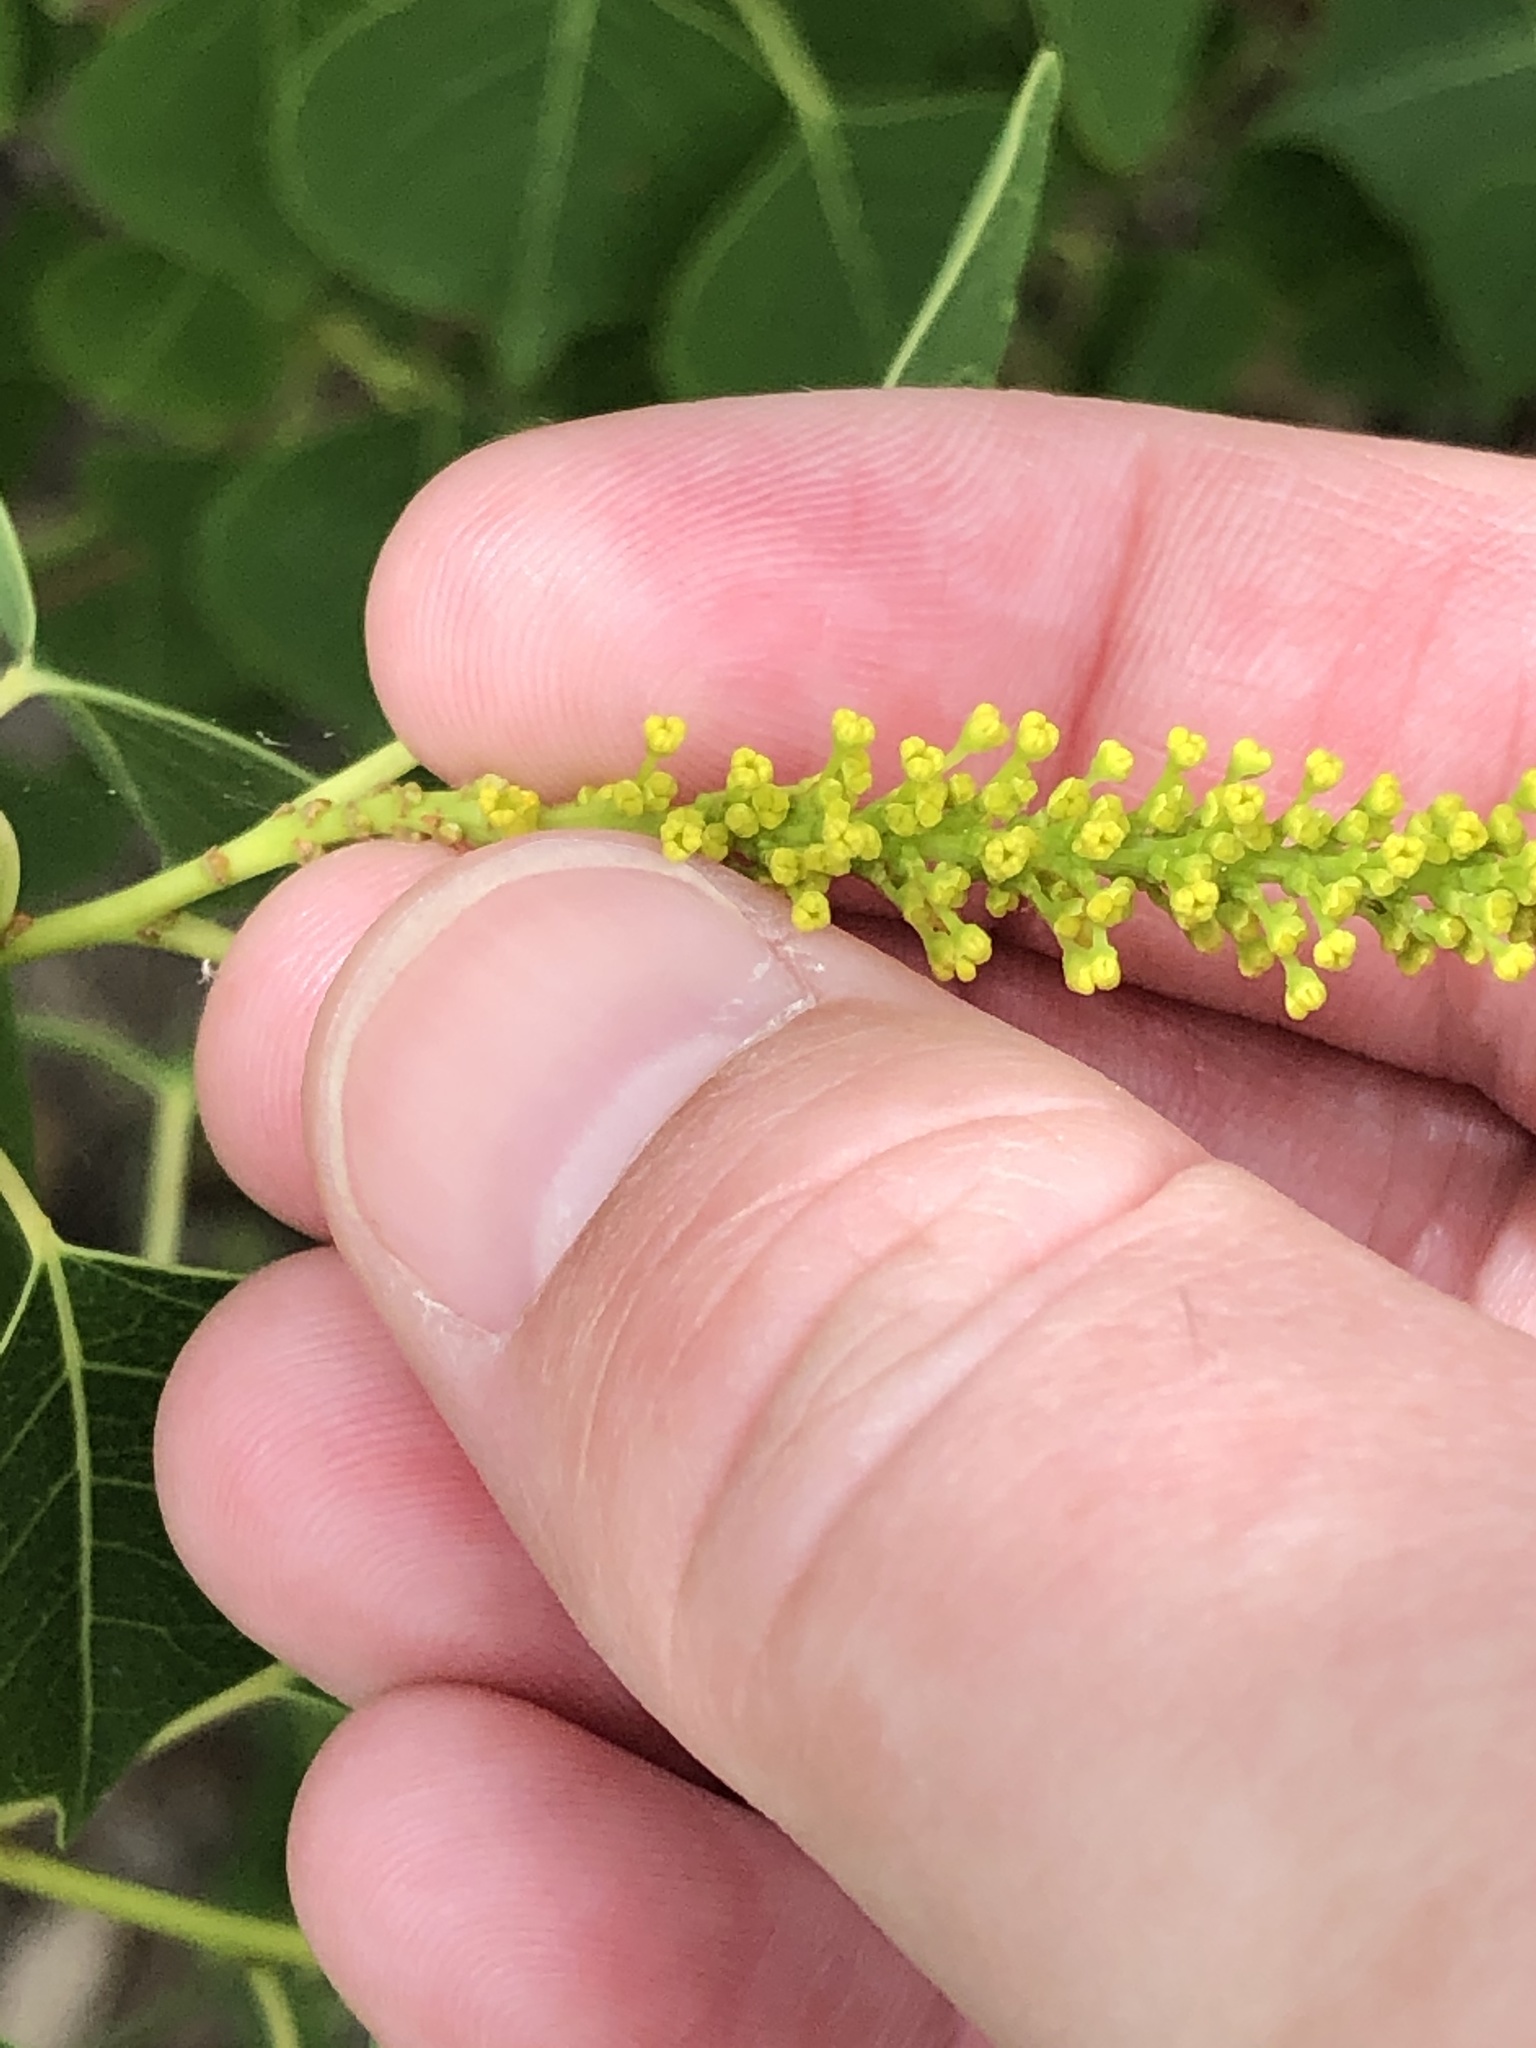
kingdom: Plantae
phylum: Tracheophyta
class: Magnoliopsida
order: Malpighiales
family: Euphorbiaceae
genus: Triadica
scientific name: Triadica sebifera
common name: Chinese tallow
